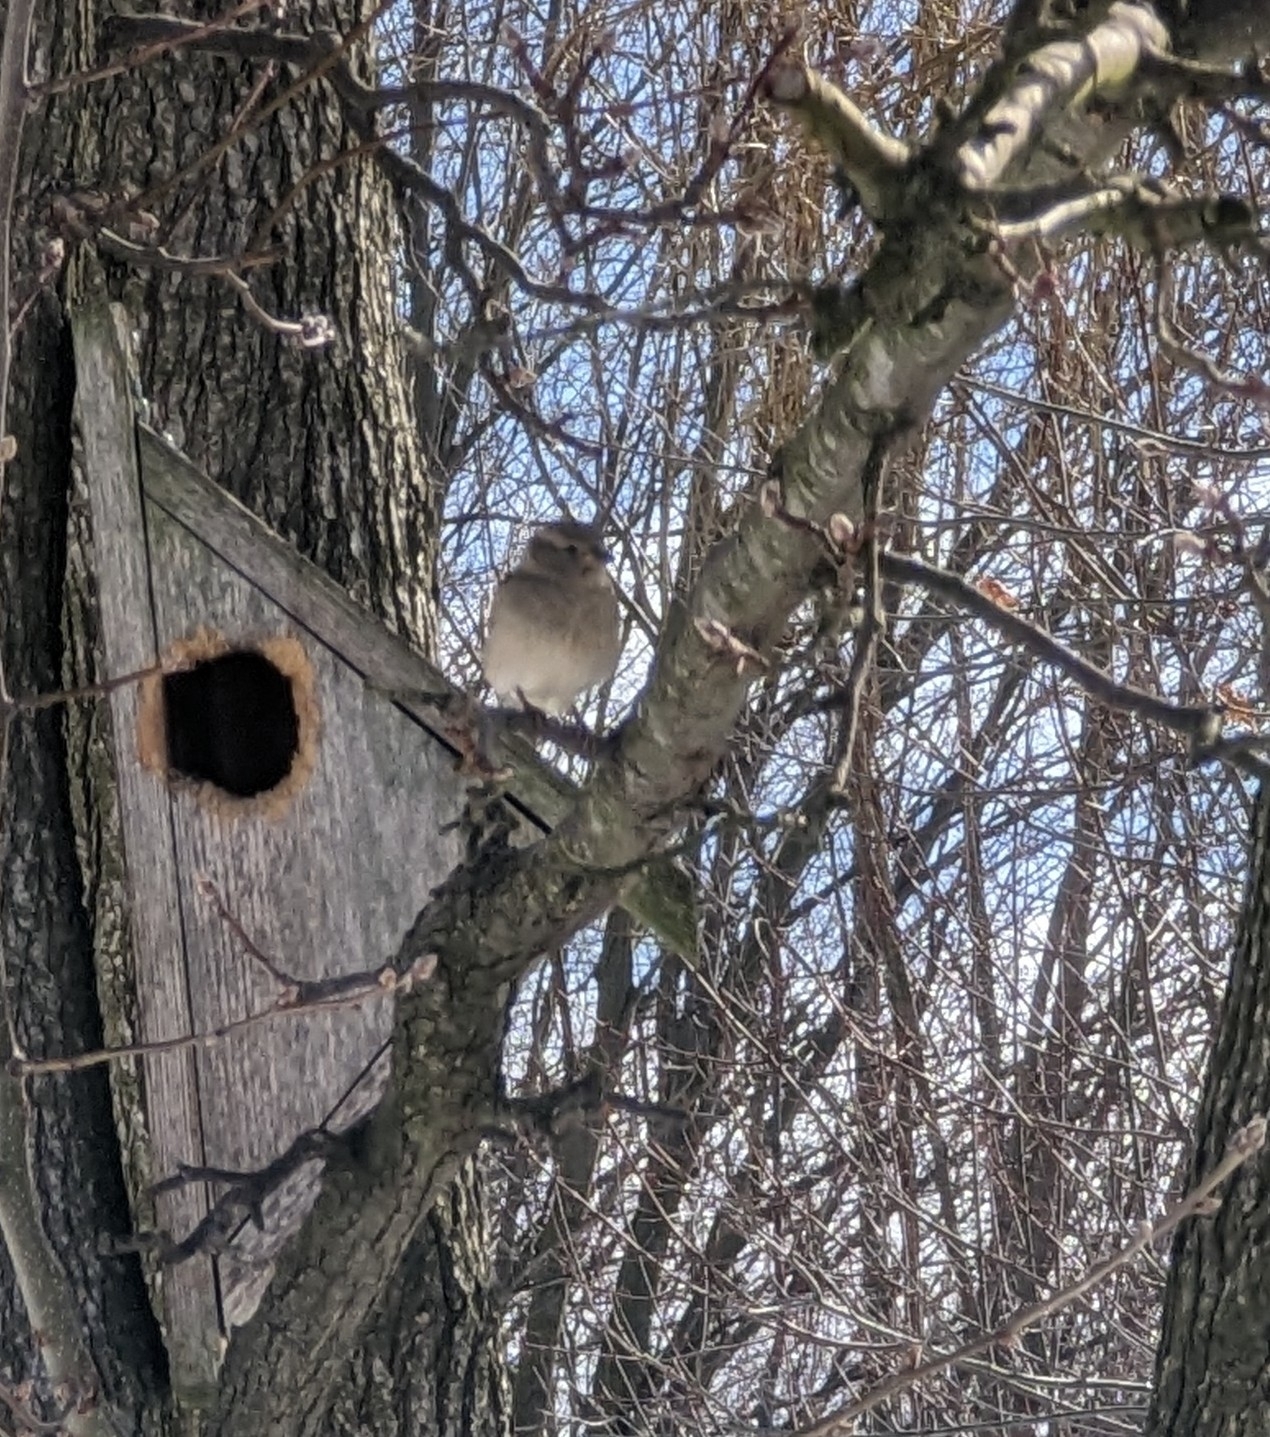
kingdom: Animalia
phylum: Chordata
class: Aves
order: Passeriformes
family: Passeridae
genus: Passer
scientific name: Passer domesticus
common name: House sparrow
